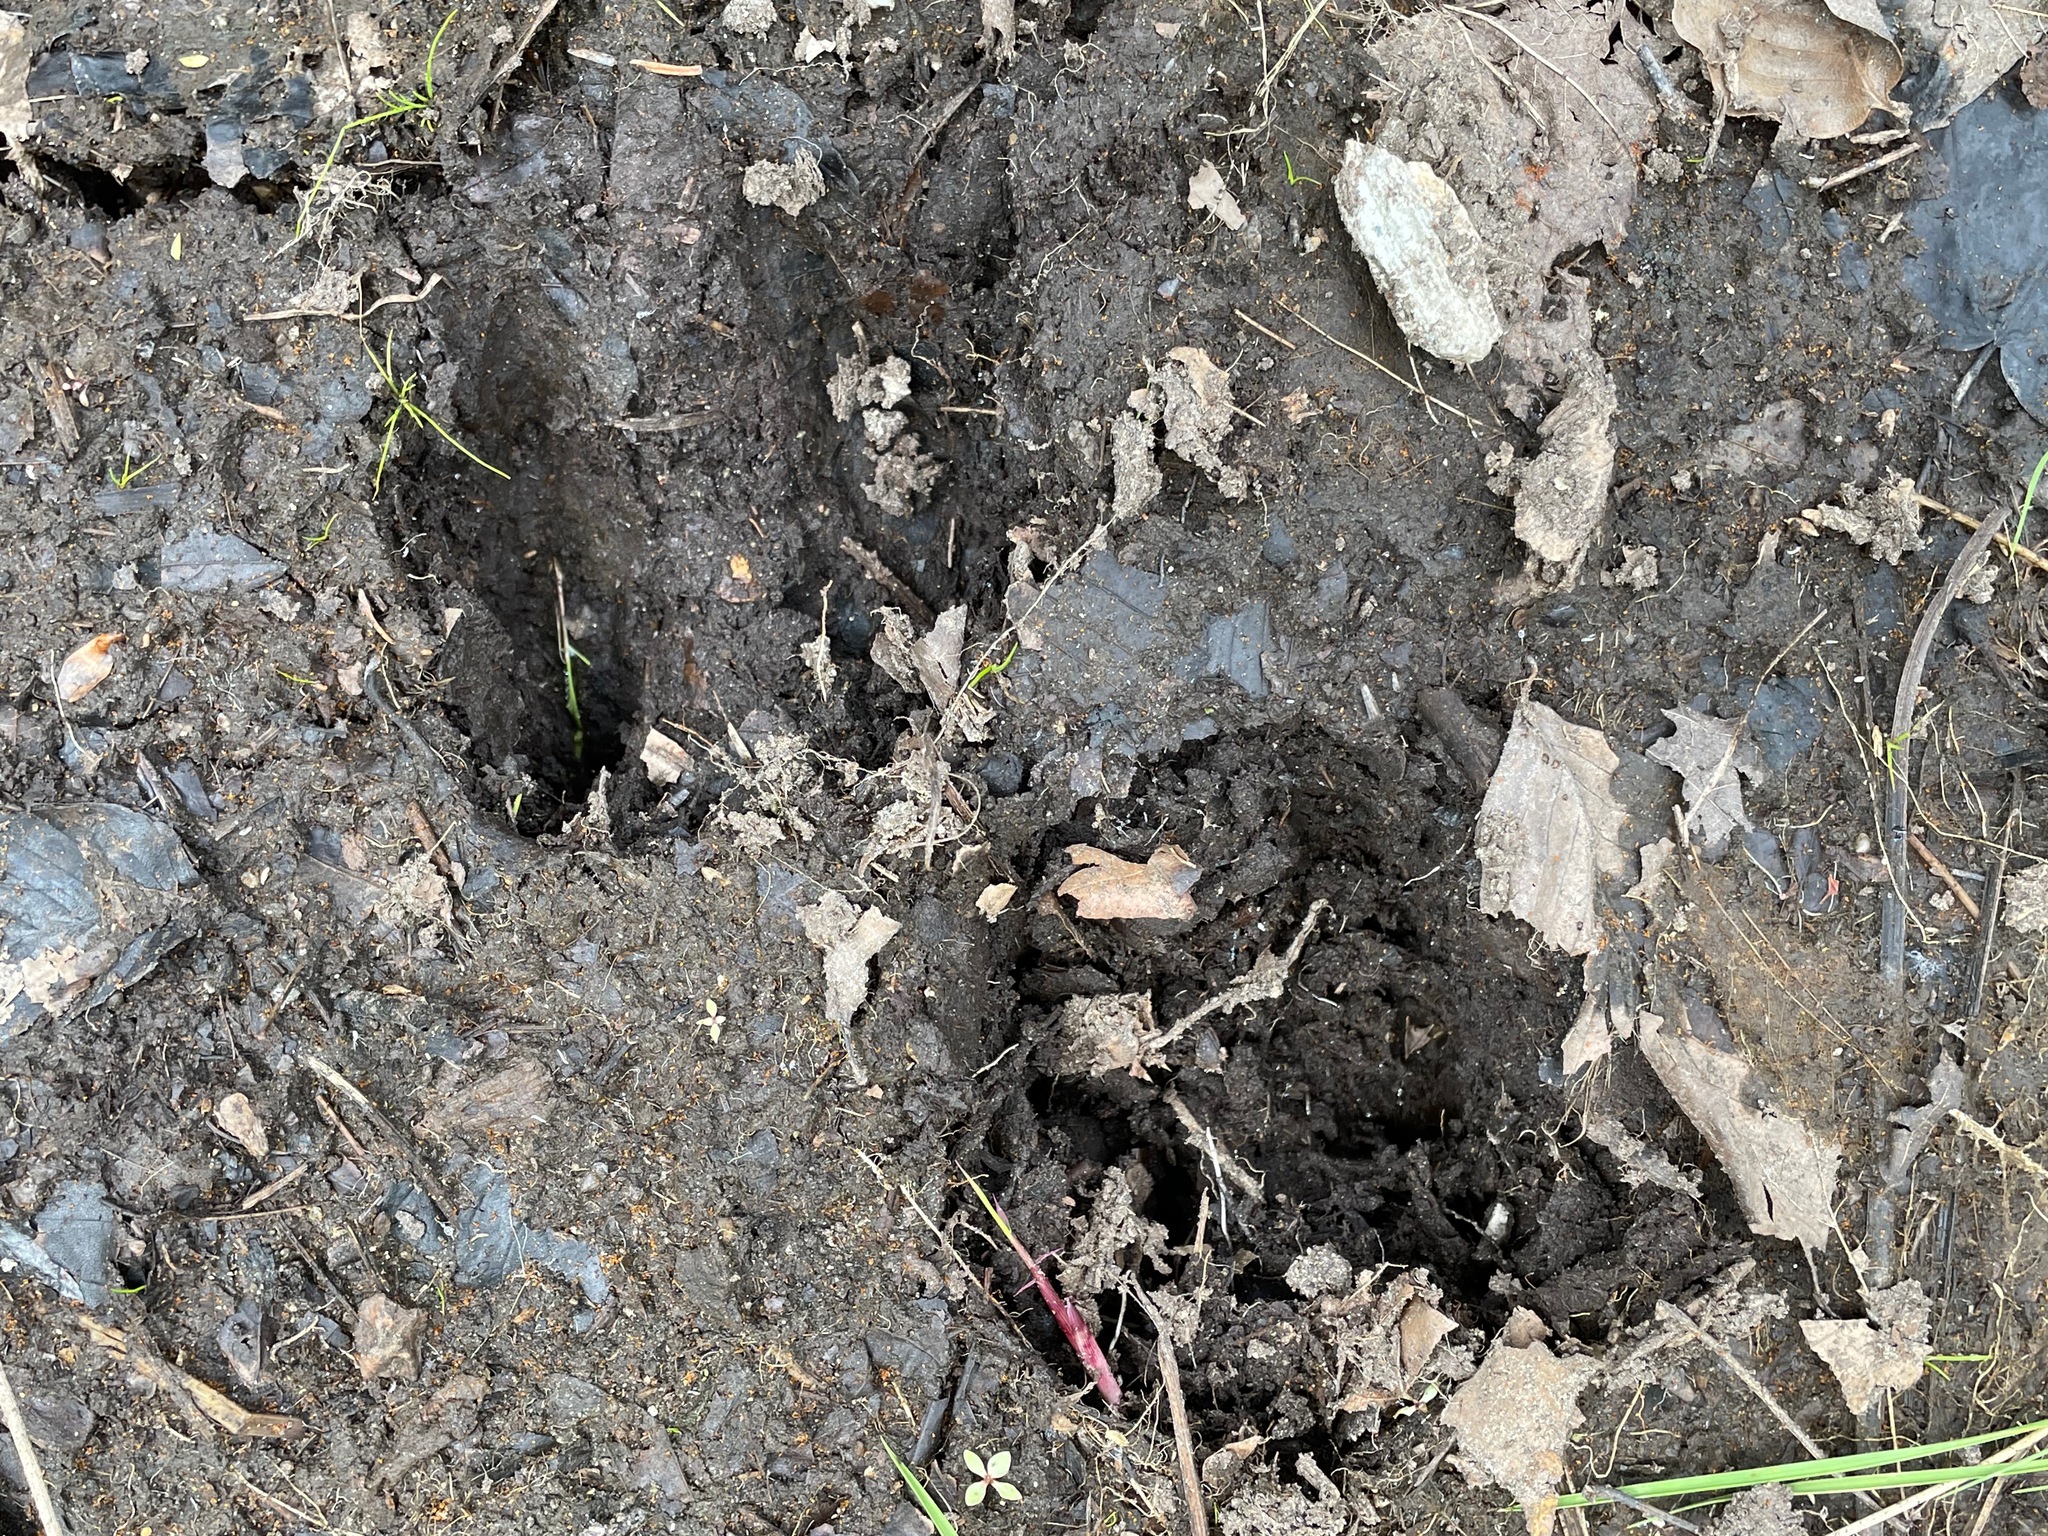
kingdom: Animalia
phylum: Chordata
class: Mammalia
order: Artiodactyla
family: Cervidae
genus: Odocoileus
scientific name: Odocoileus virginianus
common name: White-tailed deer
